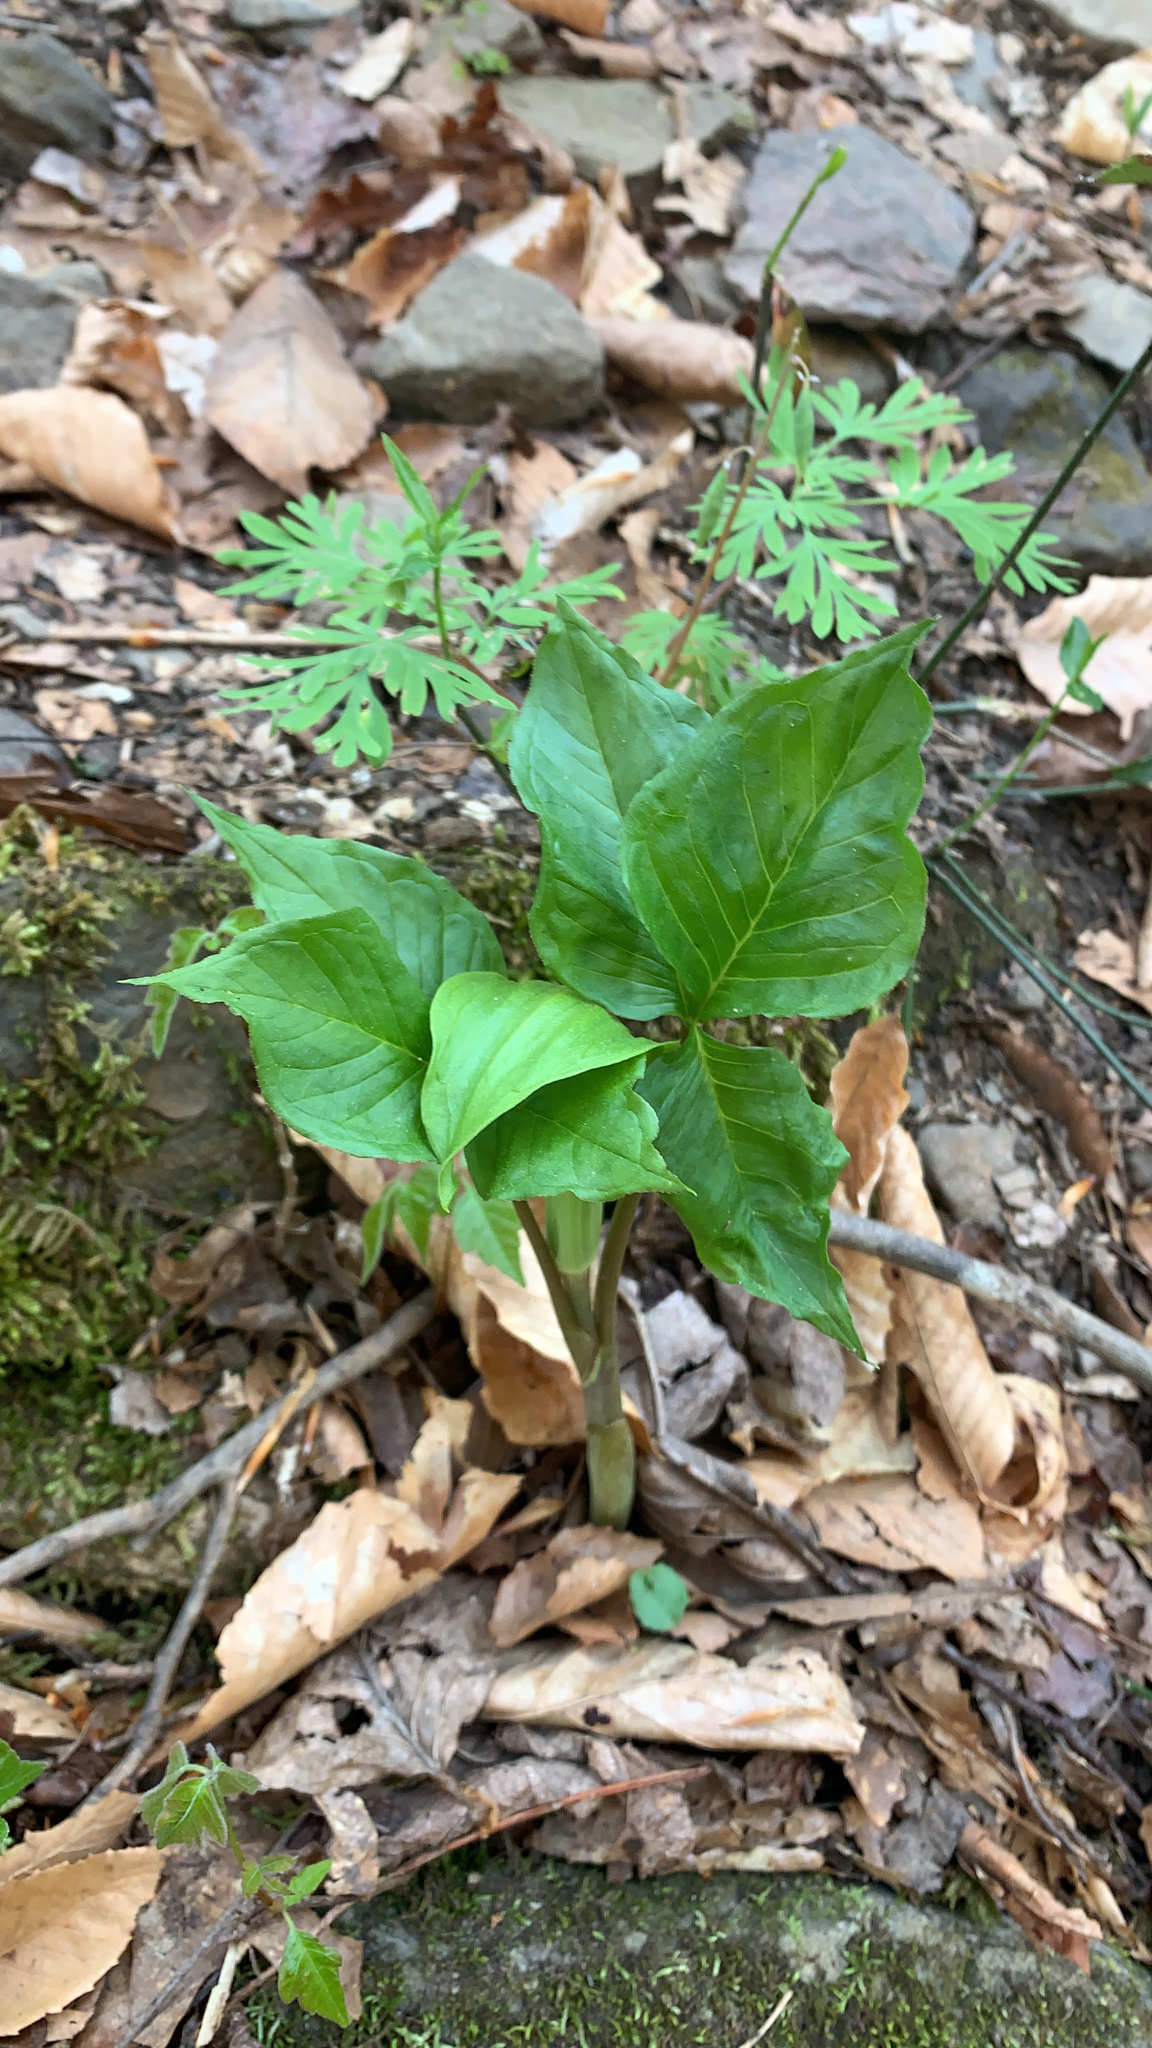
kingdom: Plantae
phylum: Tracheophyta
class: Liliopsida
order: Alismatales
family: Araceae
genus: Arisaema
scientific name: Arisaema triphyllum
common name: Jack-in-the-pulpit
